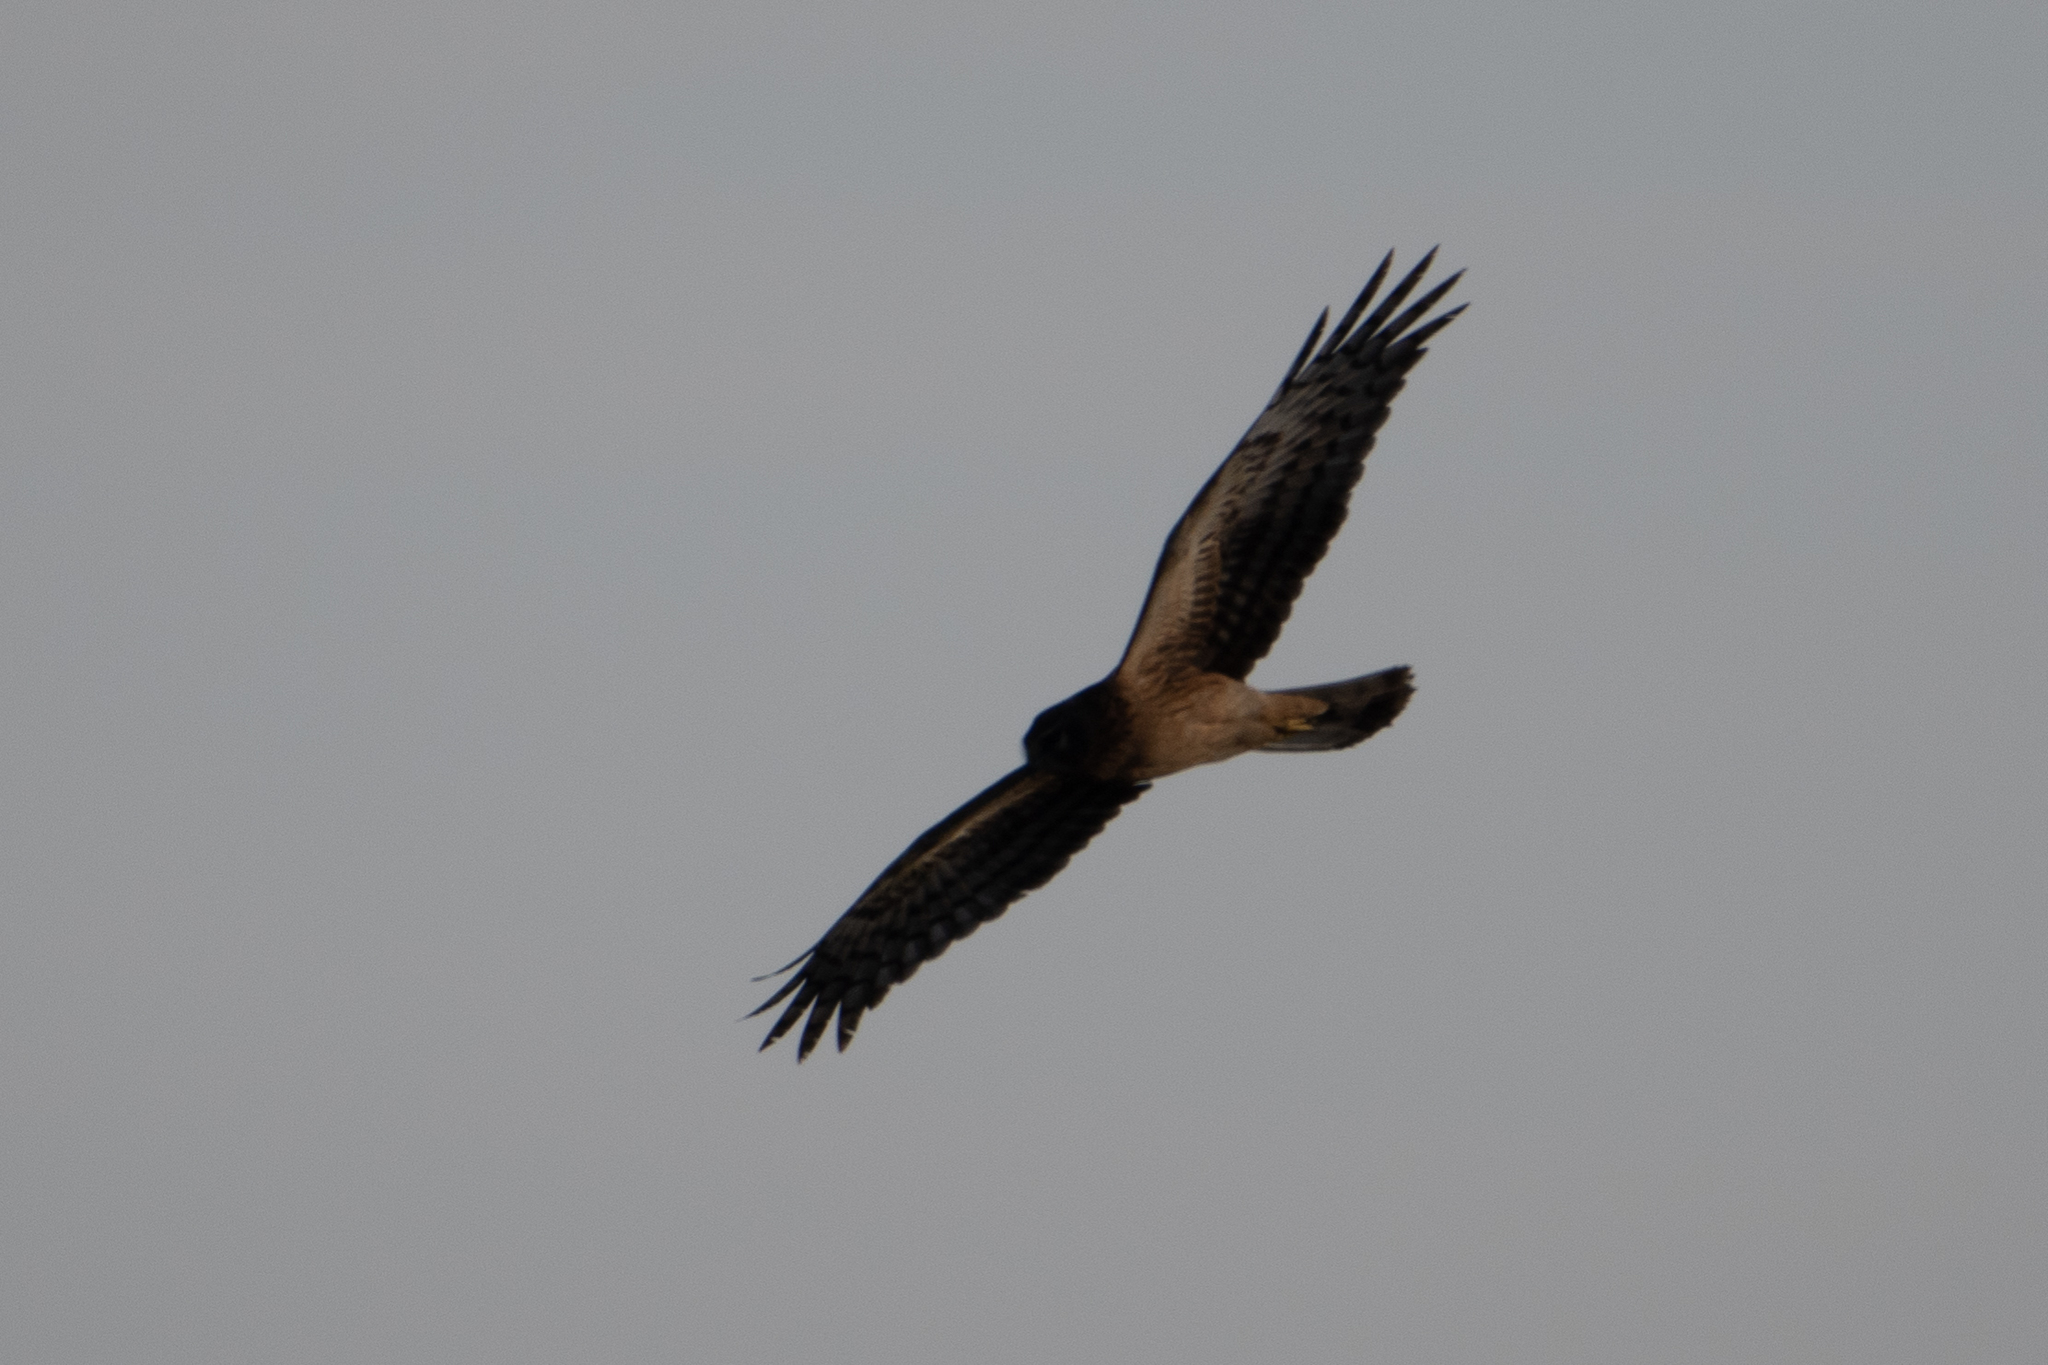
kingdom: Animalia
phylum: Chordata
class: Aves
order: Accipitriformes
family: Accipitridae
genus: Circus
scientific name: Circus cyaneus
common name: Hen harrier
